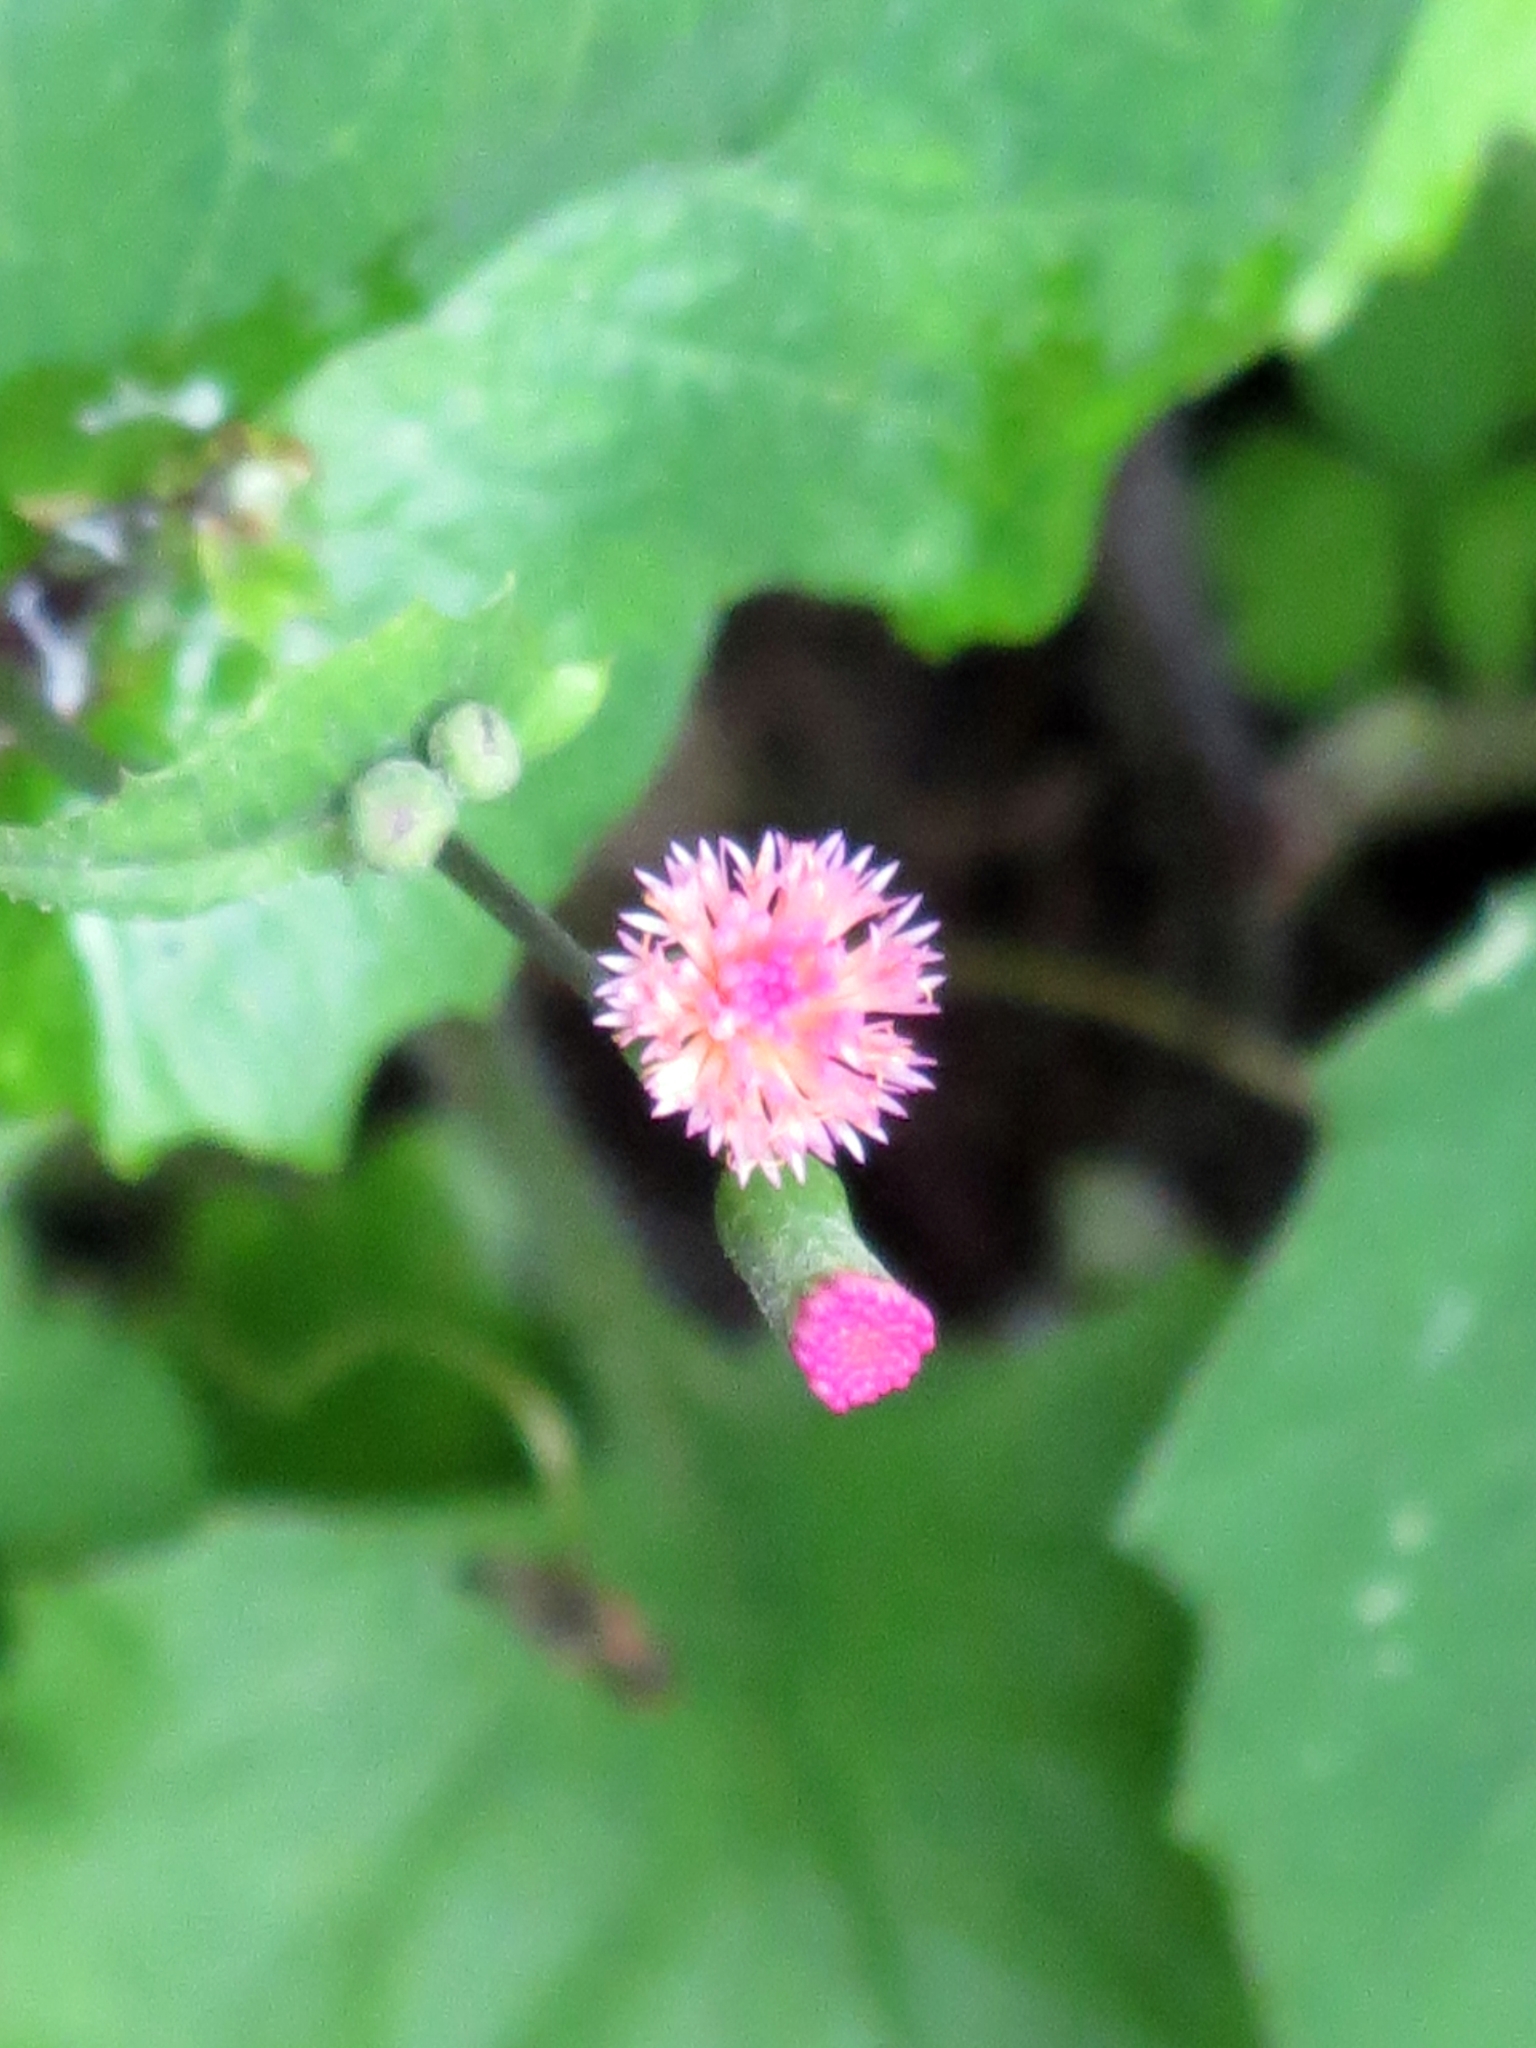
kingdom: Plantae
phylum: Tracheophyta
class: Magnoliopsida
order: Asterales
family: Asteraceae
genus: Emilia
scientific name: Emilia fosbergii
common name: Florida tasselflower
